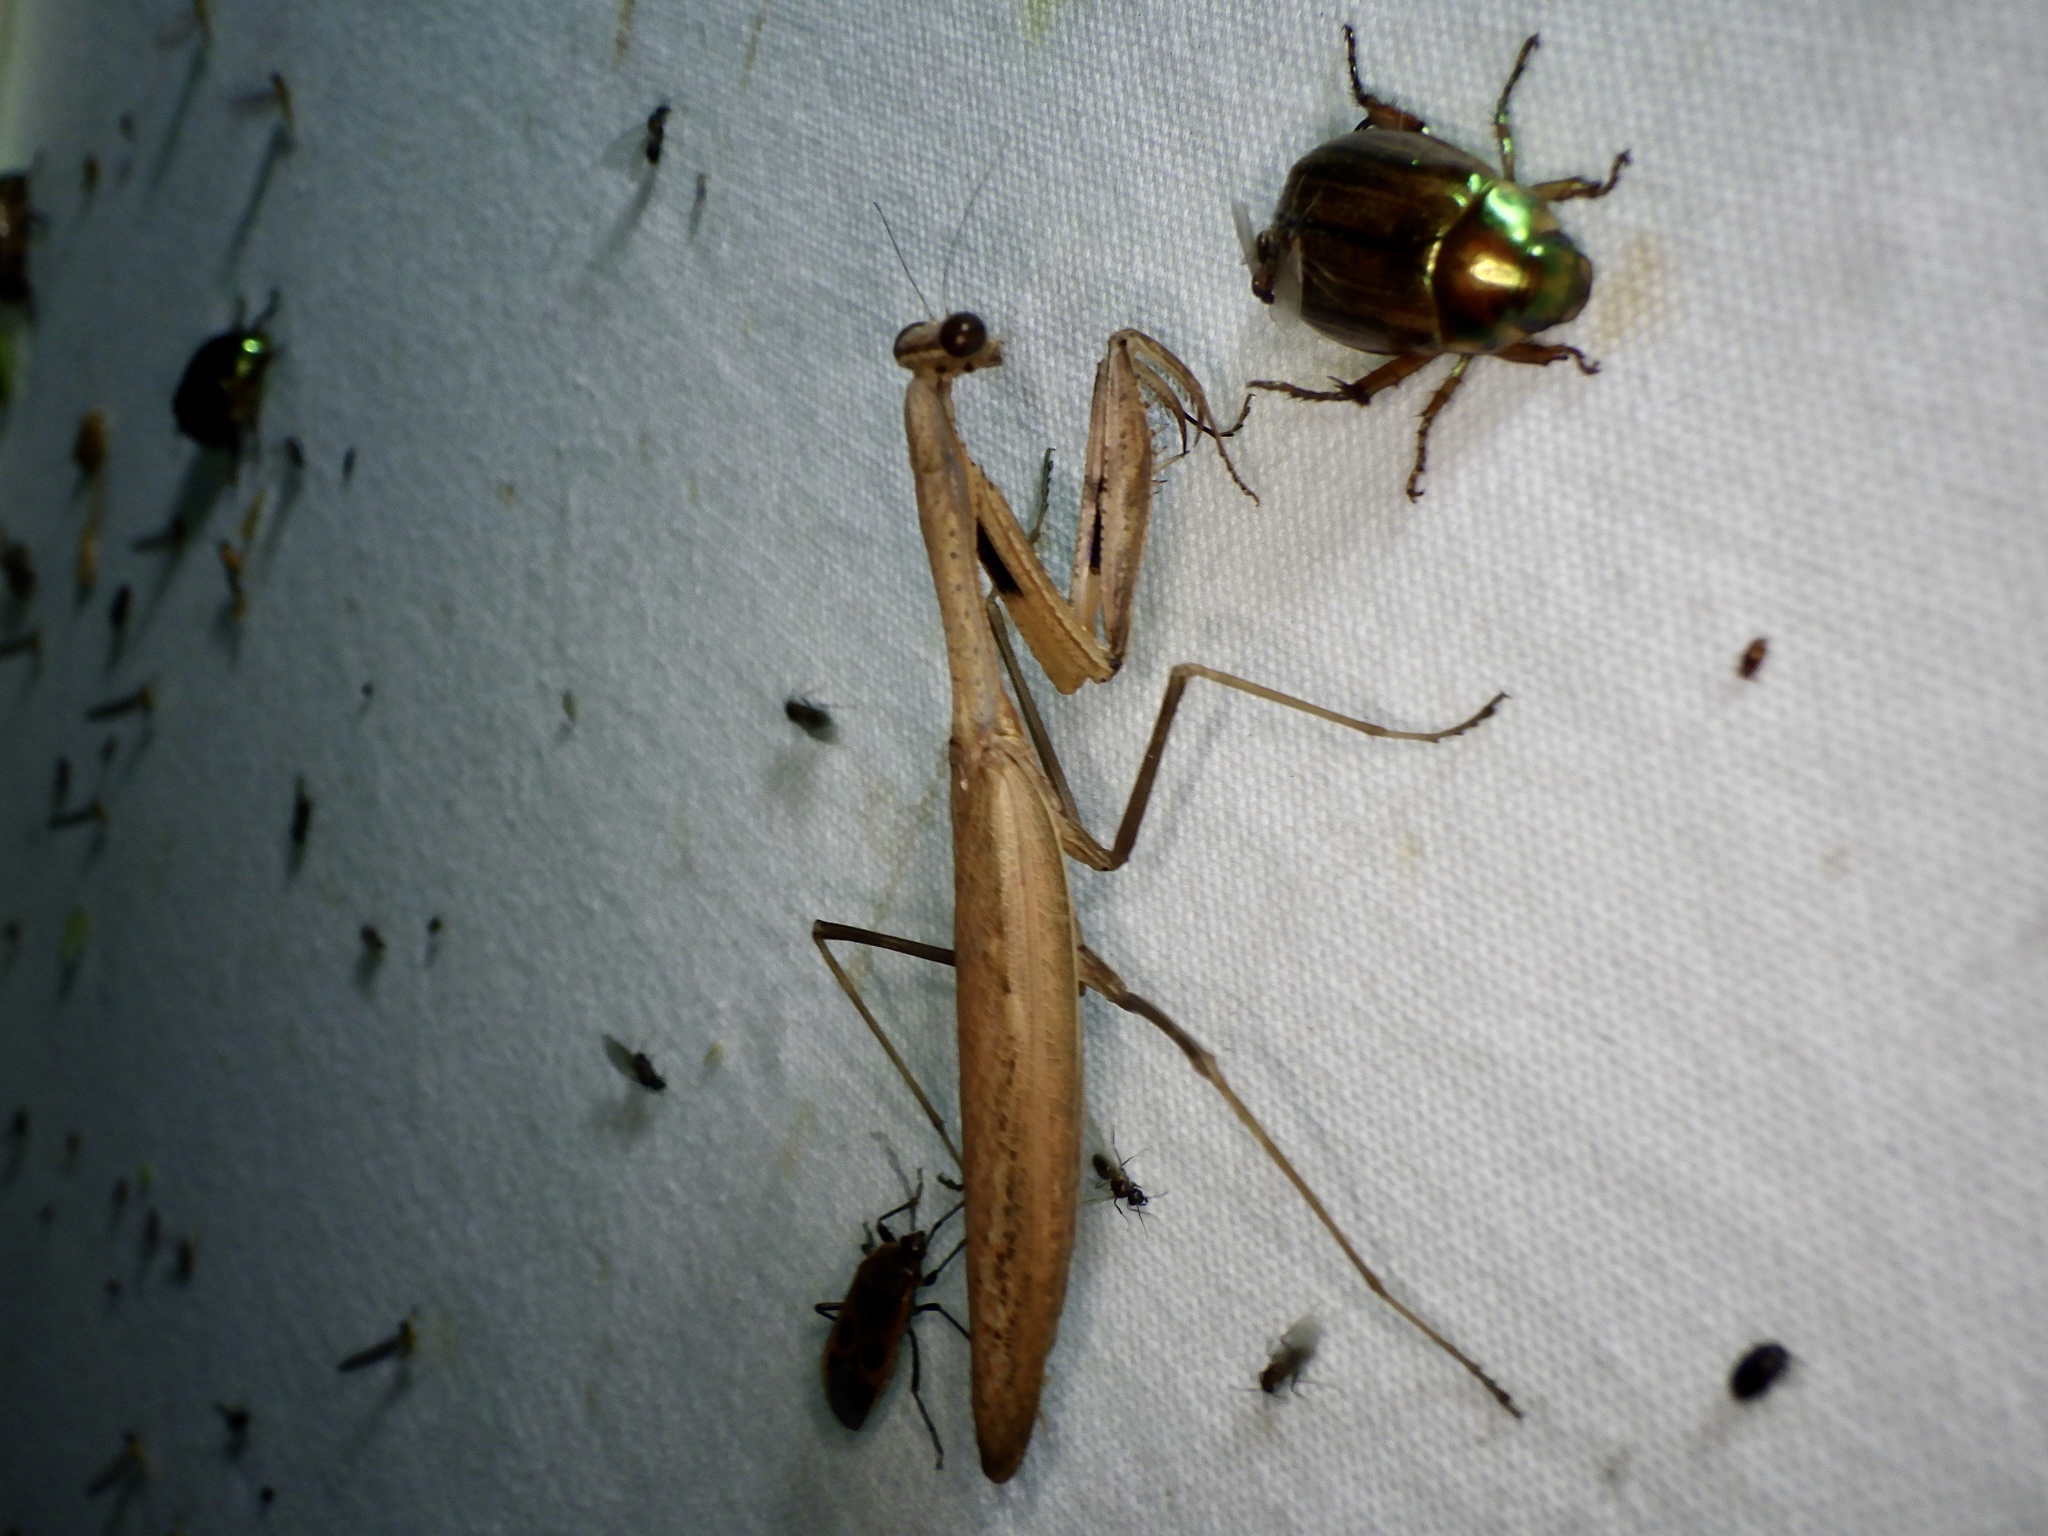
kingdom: Animalia
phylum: Arthropoda
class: Insecta
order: Mantodea
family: Mantidae
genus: Statilia
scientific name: Statilia maculata
